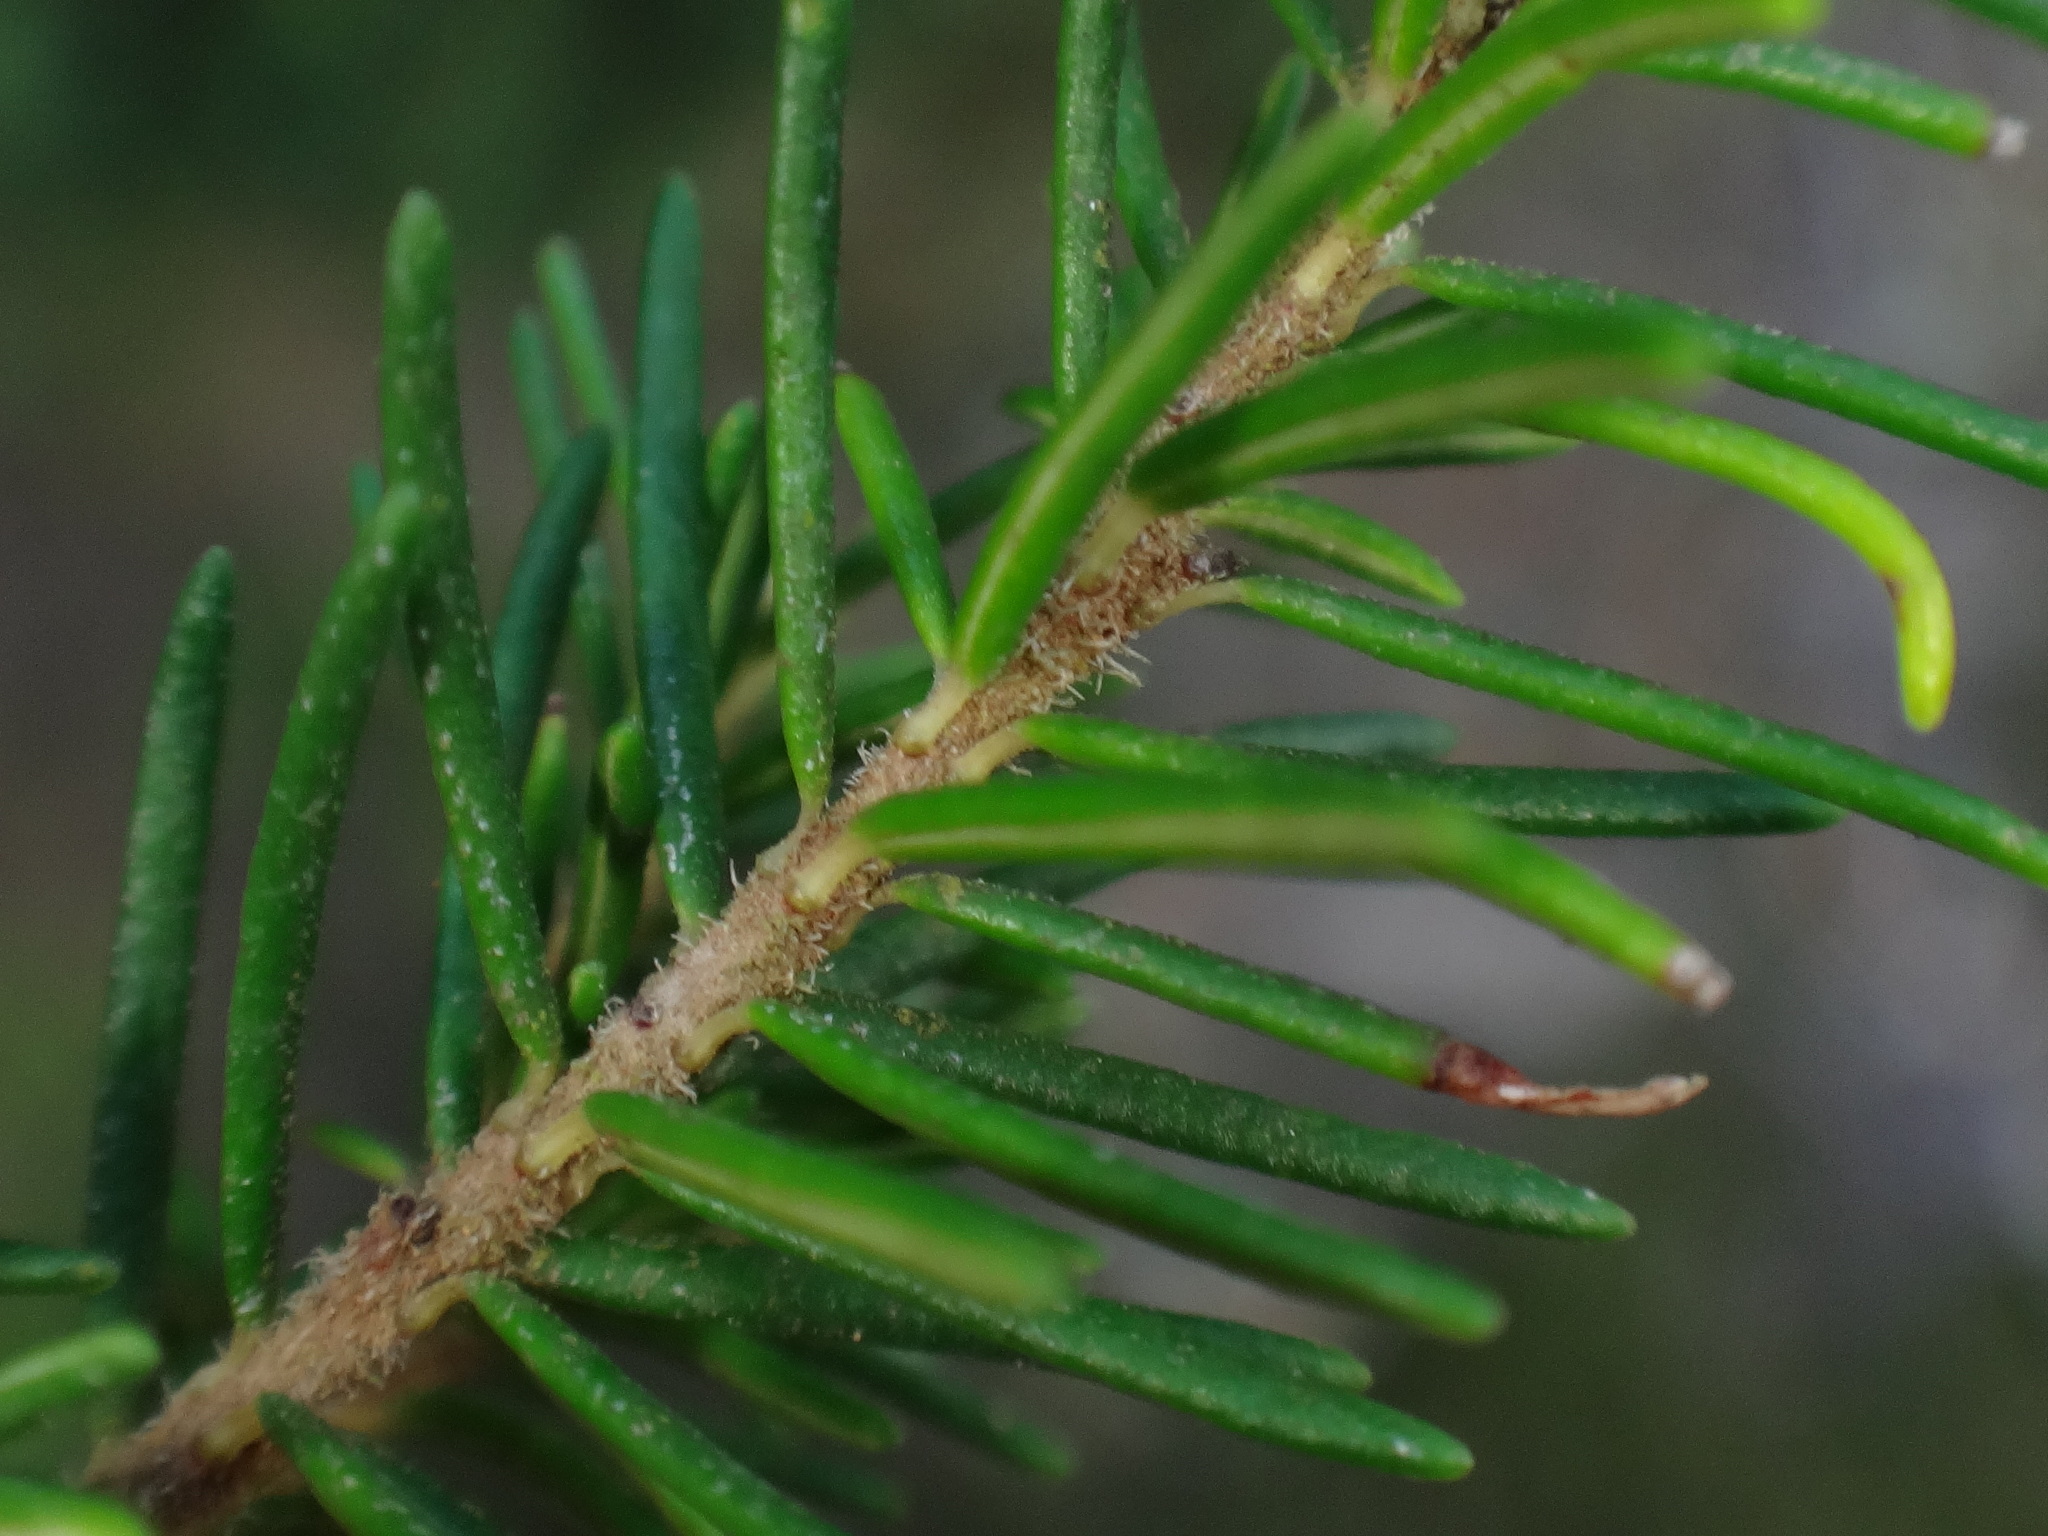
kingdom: Plantae
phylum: Tracheophyta
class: Magnoliopsida
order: Ericales
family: Ericaceae
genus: Erica
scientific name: Erica canariensis
